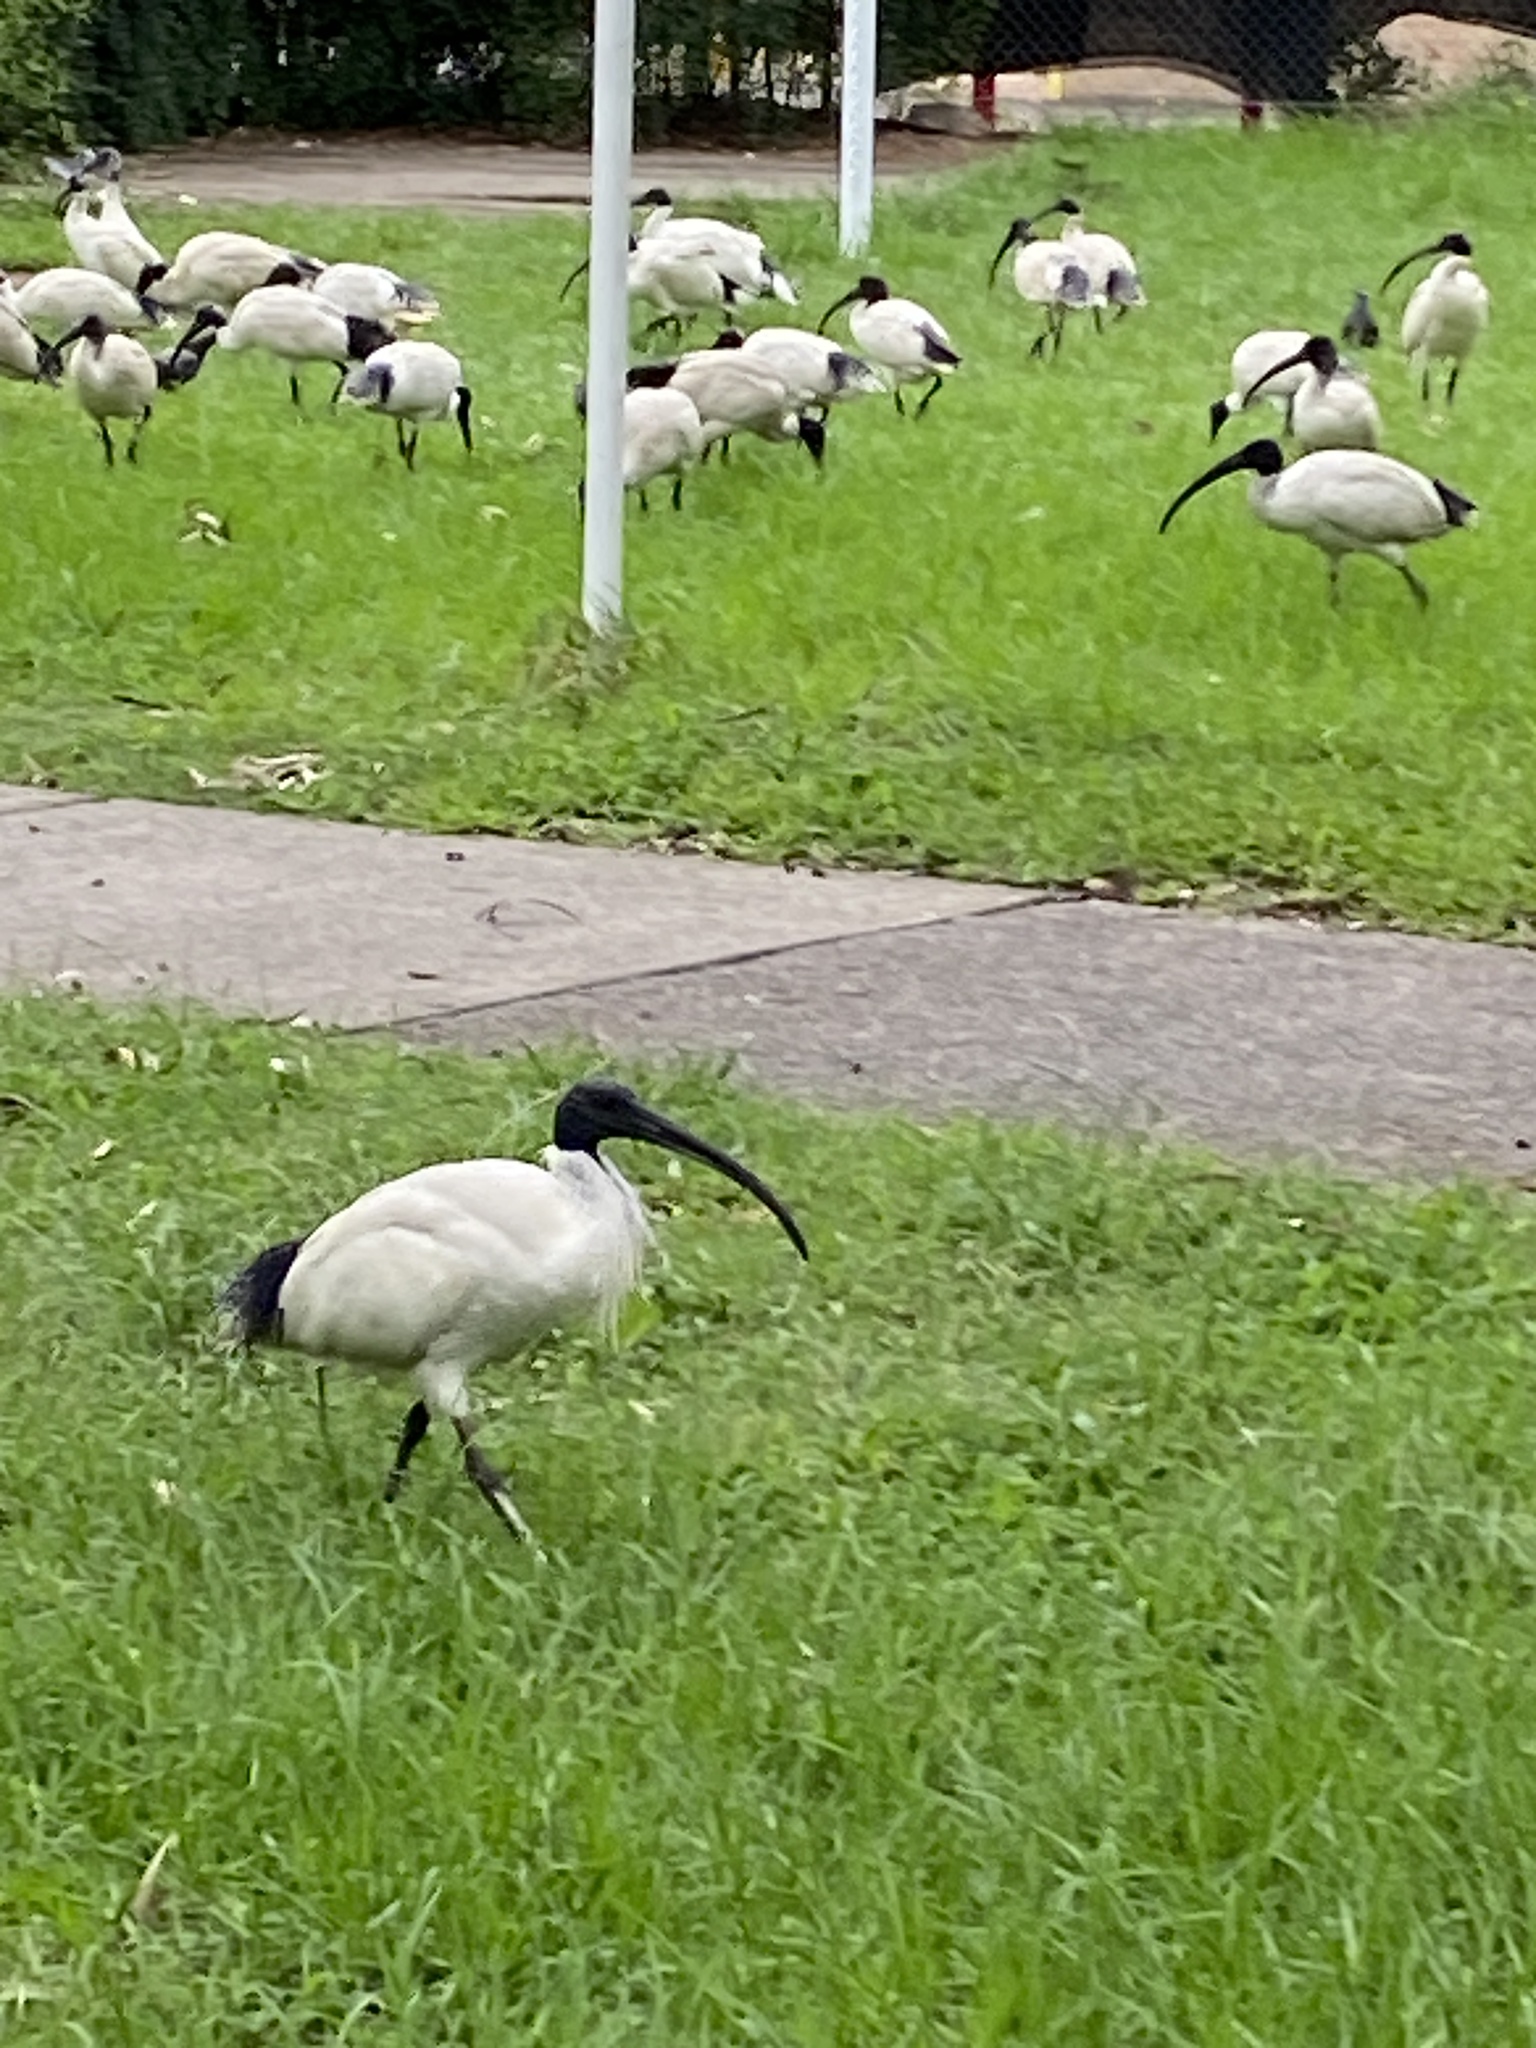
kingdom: Animalia
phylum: Chordata
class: Aves
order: Pelecaniformes
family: Threskiornithidae
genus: Threskiornis
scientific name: Threskiornis molucca
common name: Australian white ibis
